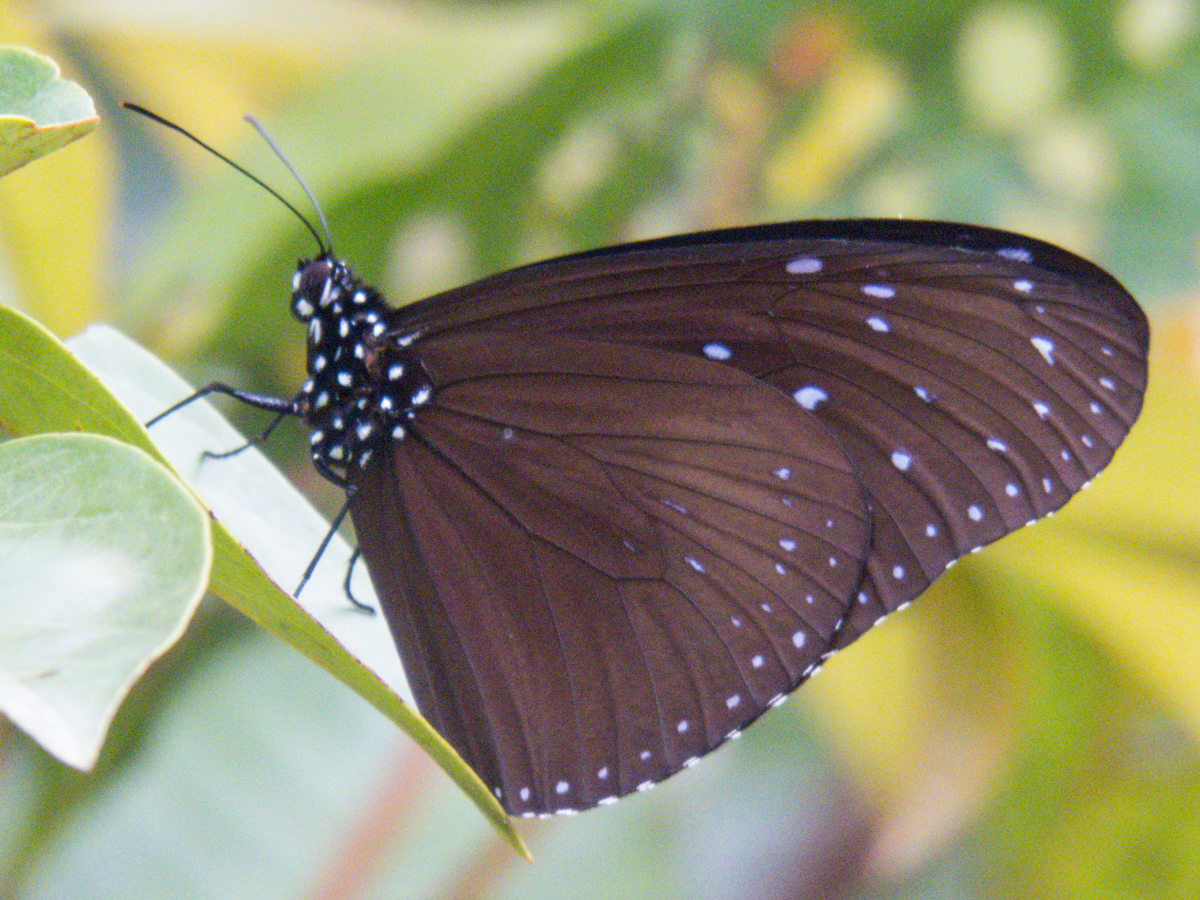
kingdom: Animalia
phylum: Arthropoda
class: Insecta
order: Lepidoptera
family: Nymphalidae
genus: Euploea
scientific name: Euploea mulciber
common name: Striped blue crow butterfly
